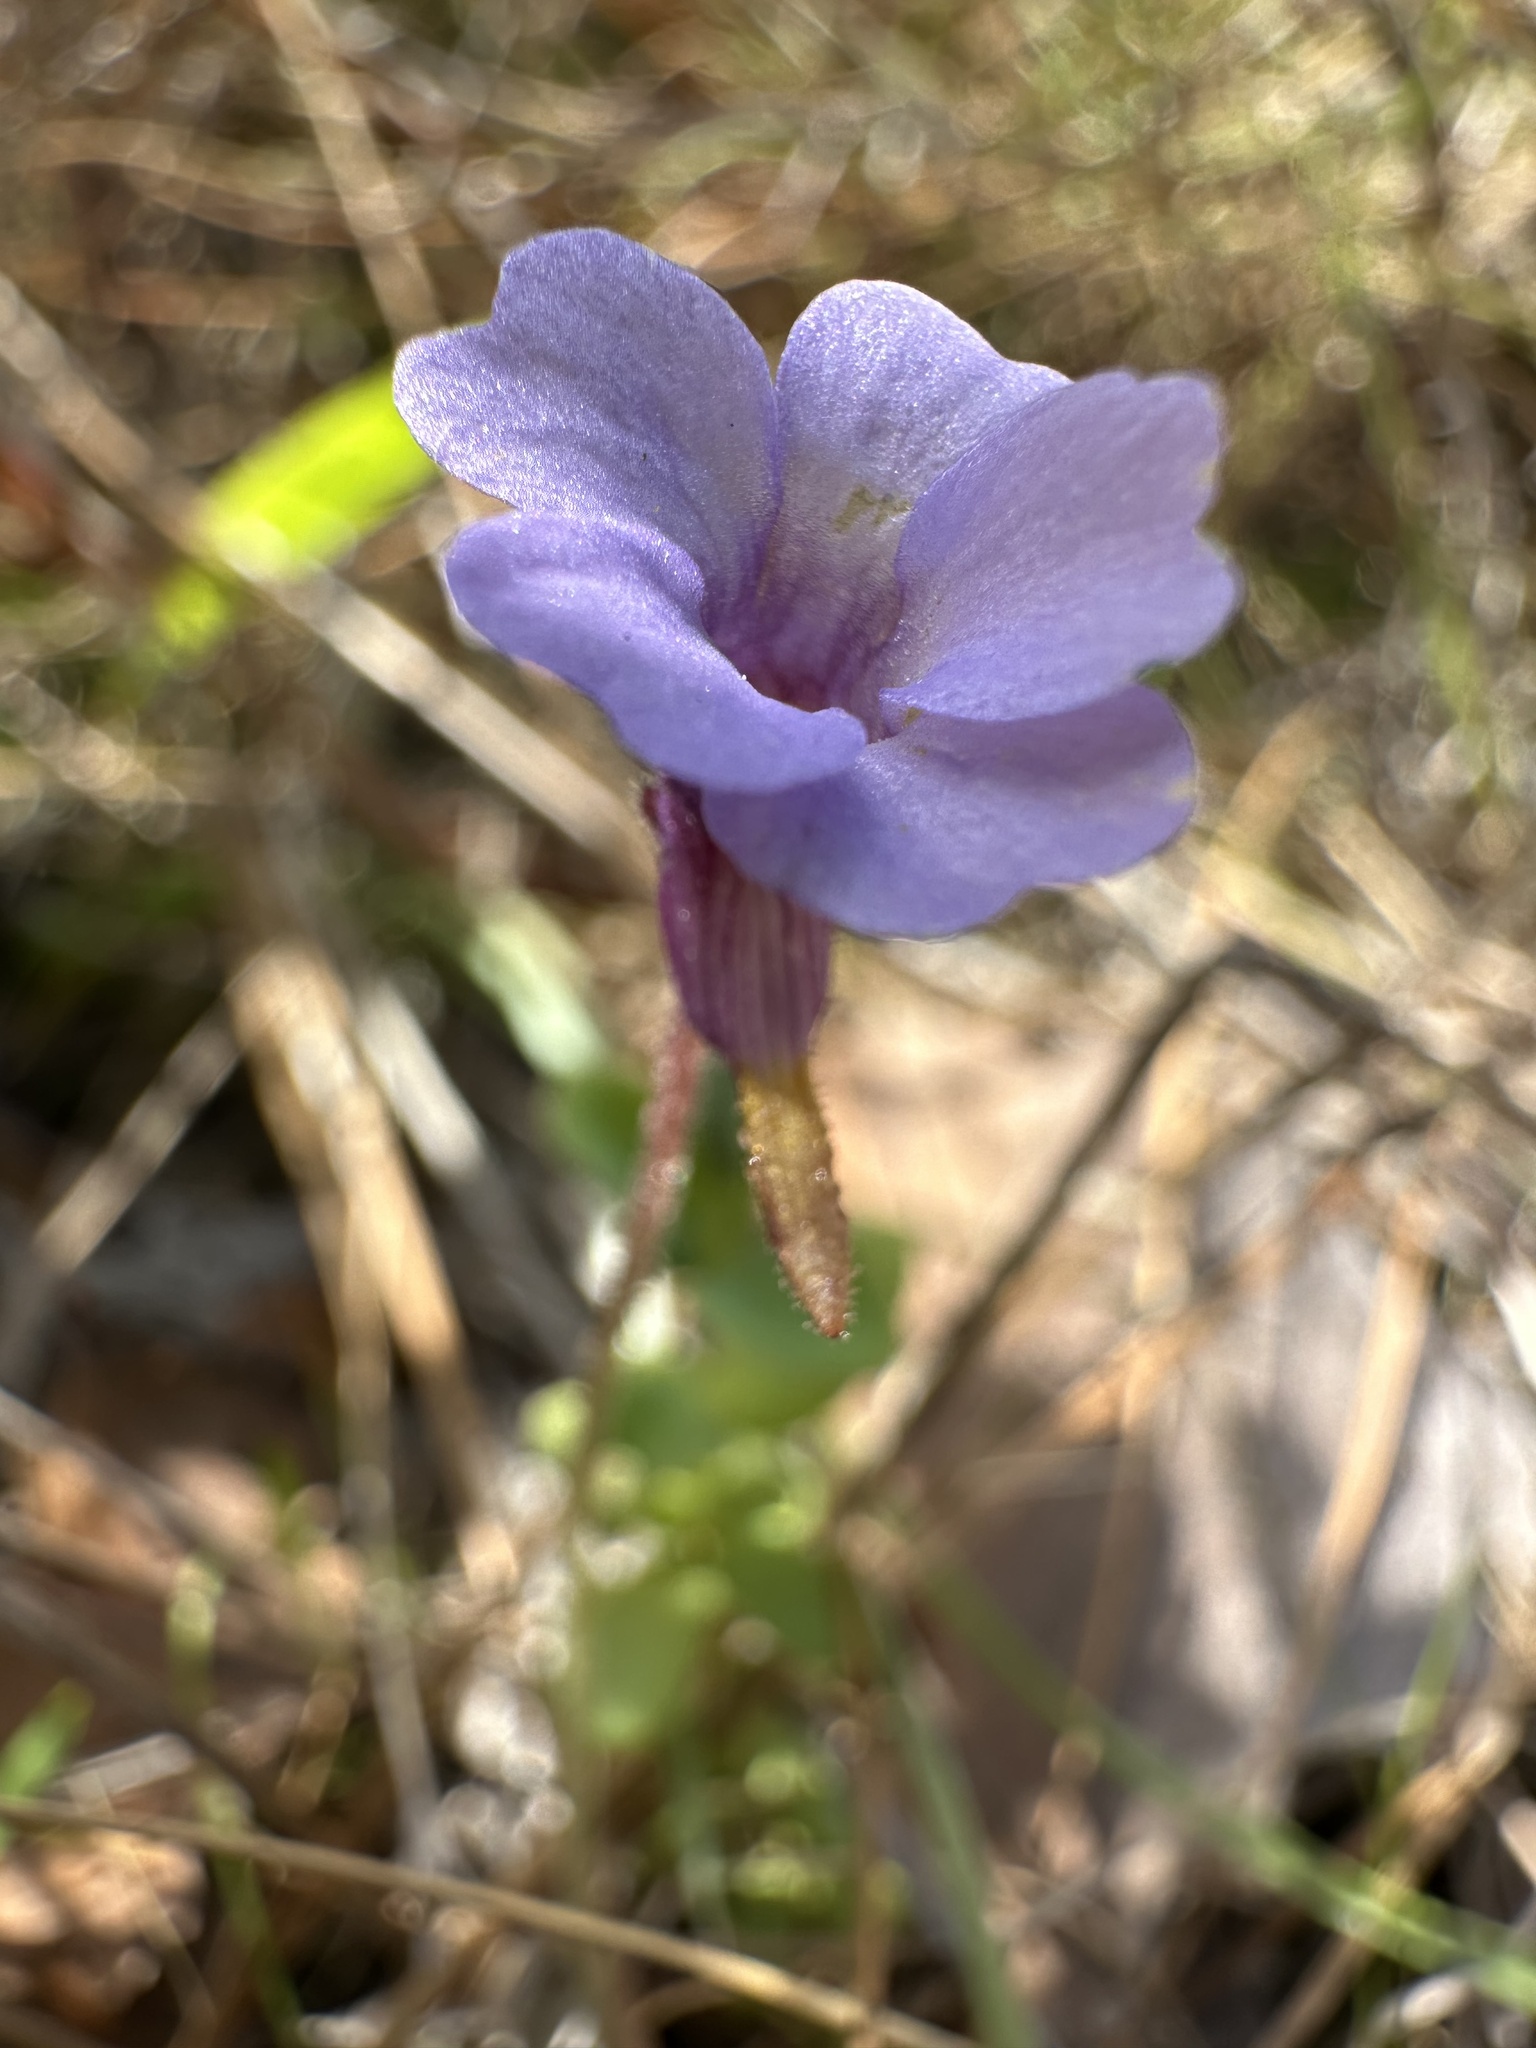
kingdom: Plantae
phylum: Tracheophyta
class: Magnoliopsida
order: Lamiales
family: Lentibulariaceae
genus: Pinguicula
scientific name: Pinguicula pumila
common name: Small butterwort
